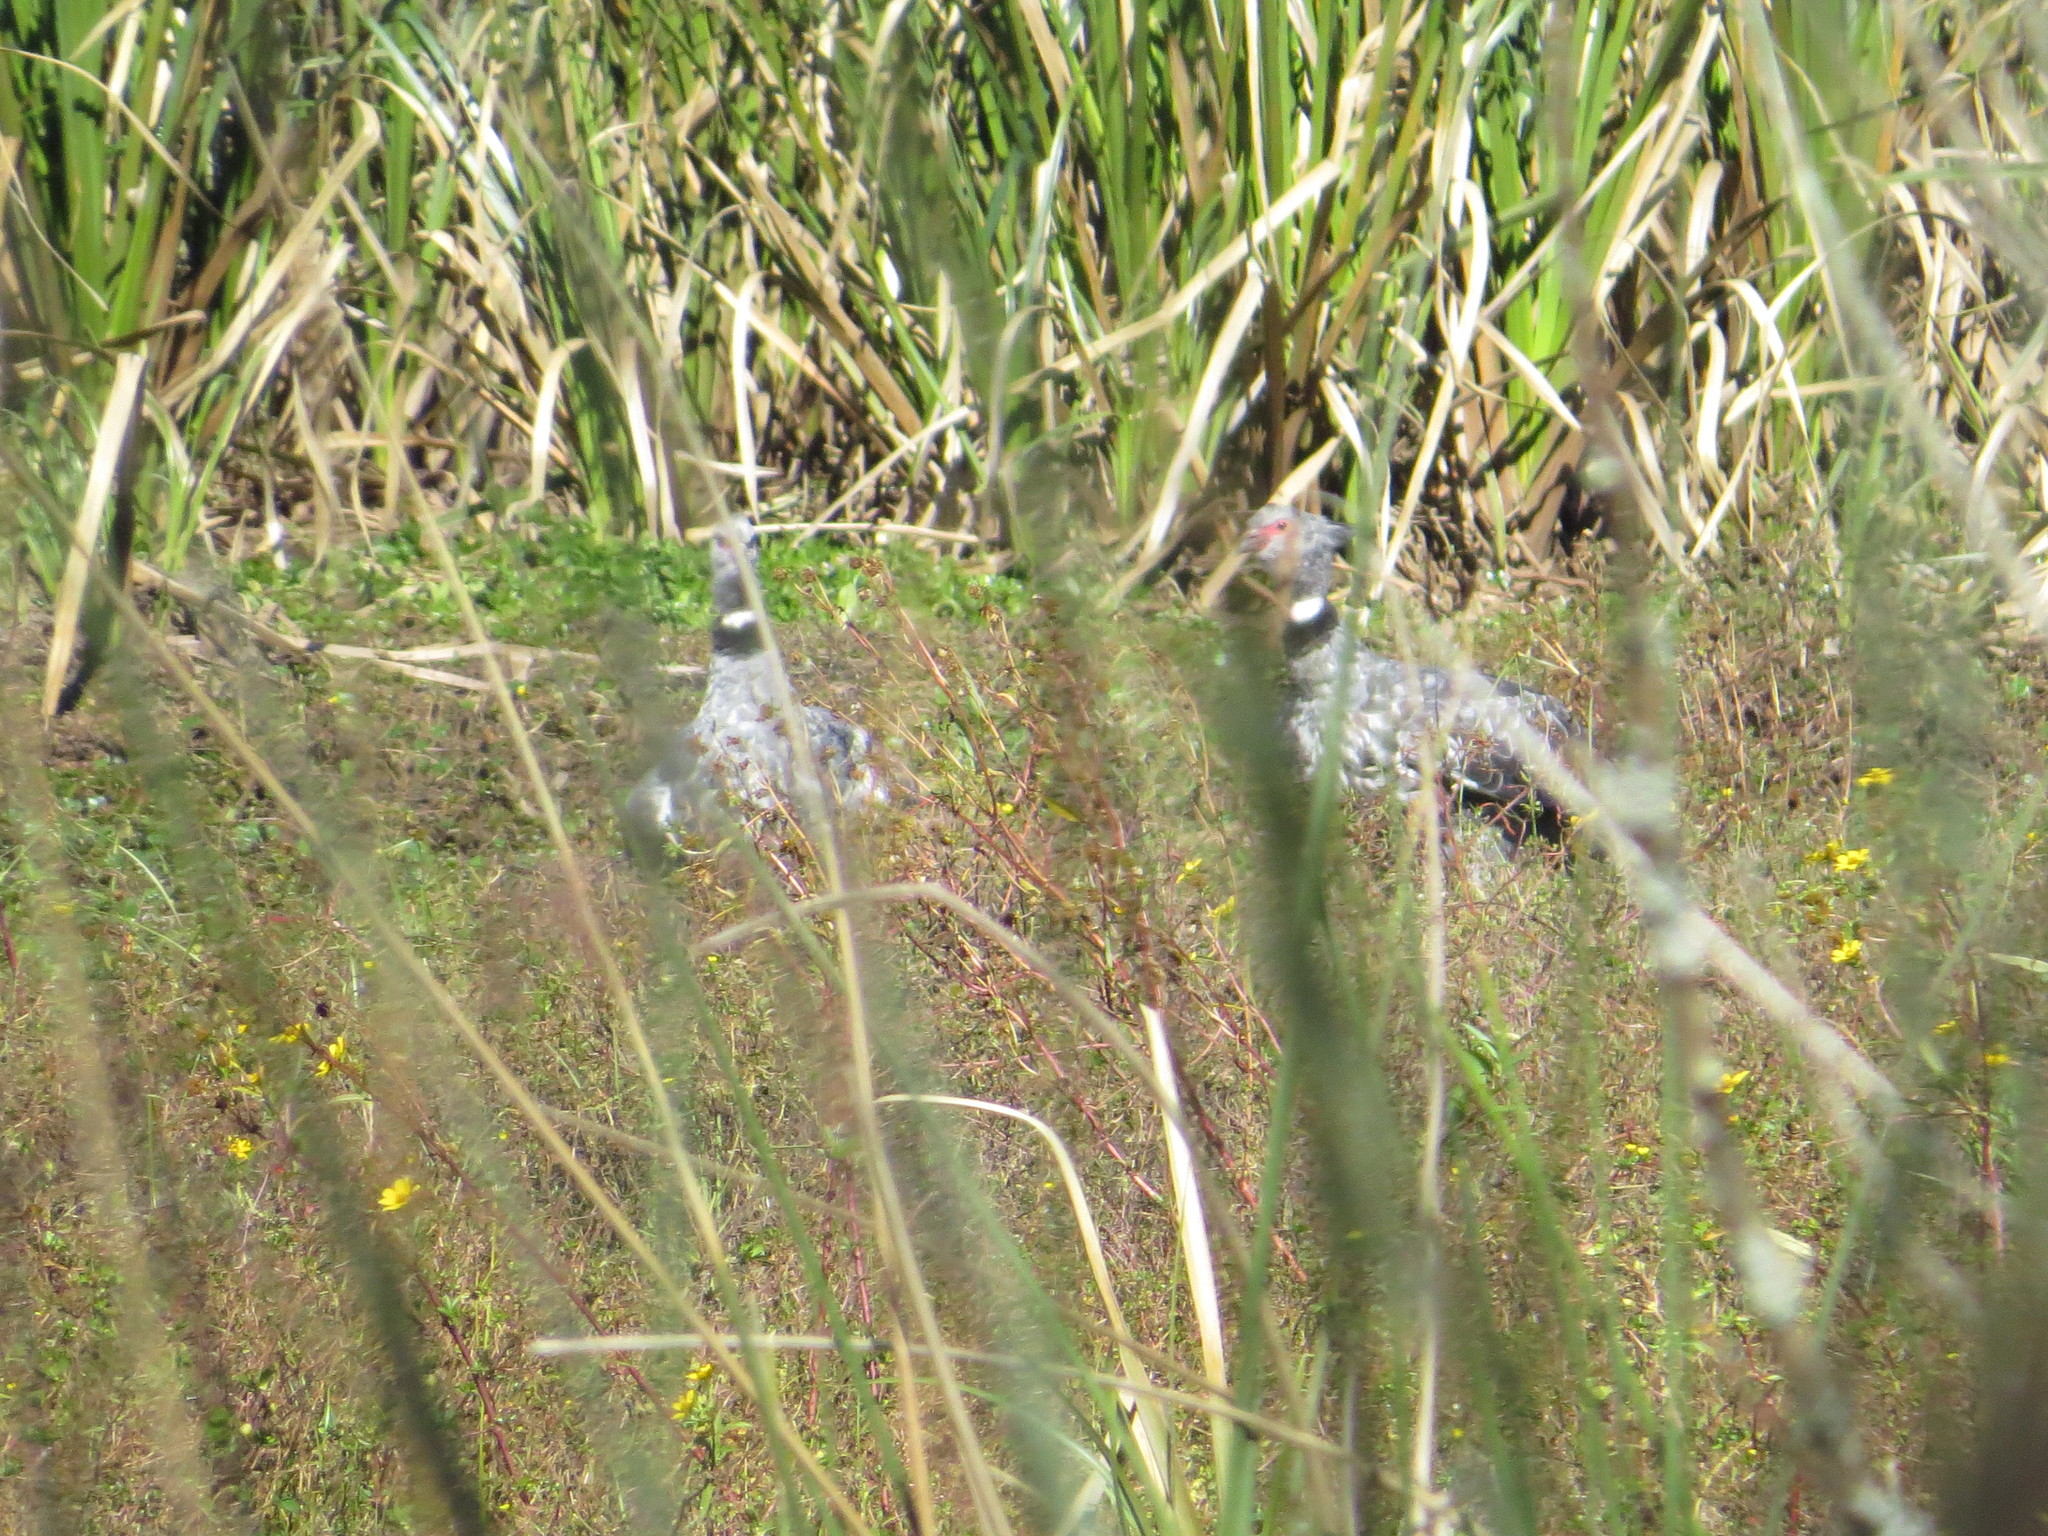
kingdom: Animalia
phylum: Chordata
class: Aves
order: Anseriformes
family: Anhimidae
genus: Chauna
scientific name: Chauna torquata
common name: Southern screamer
